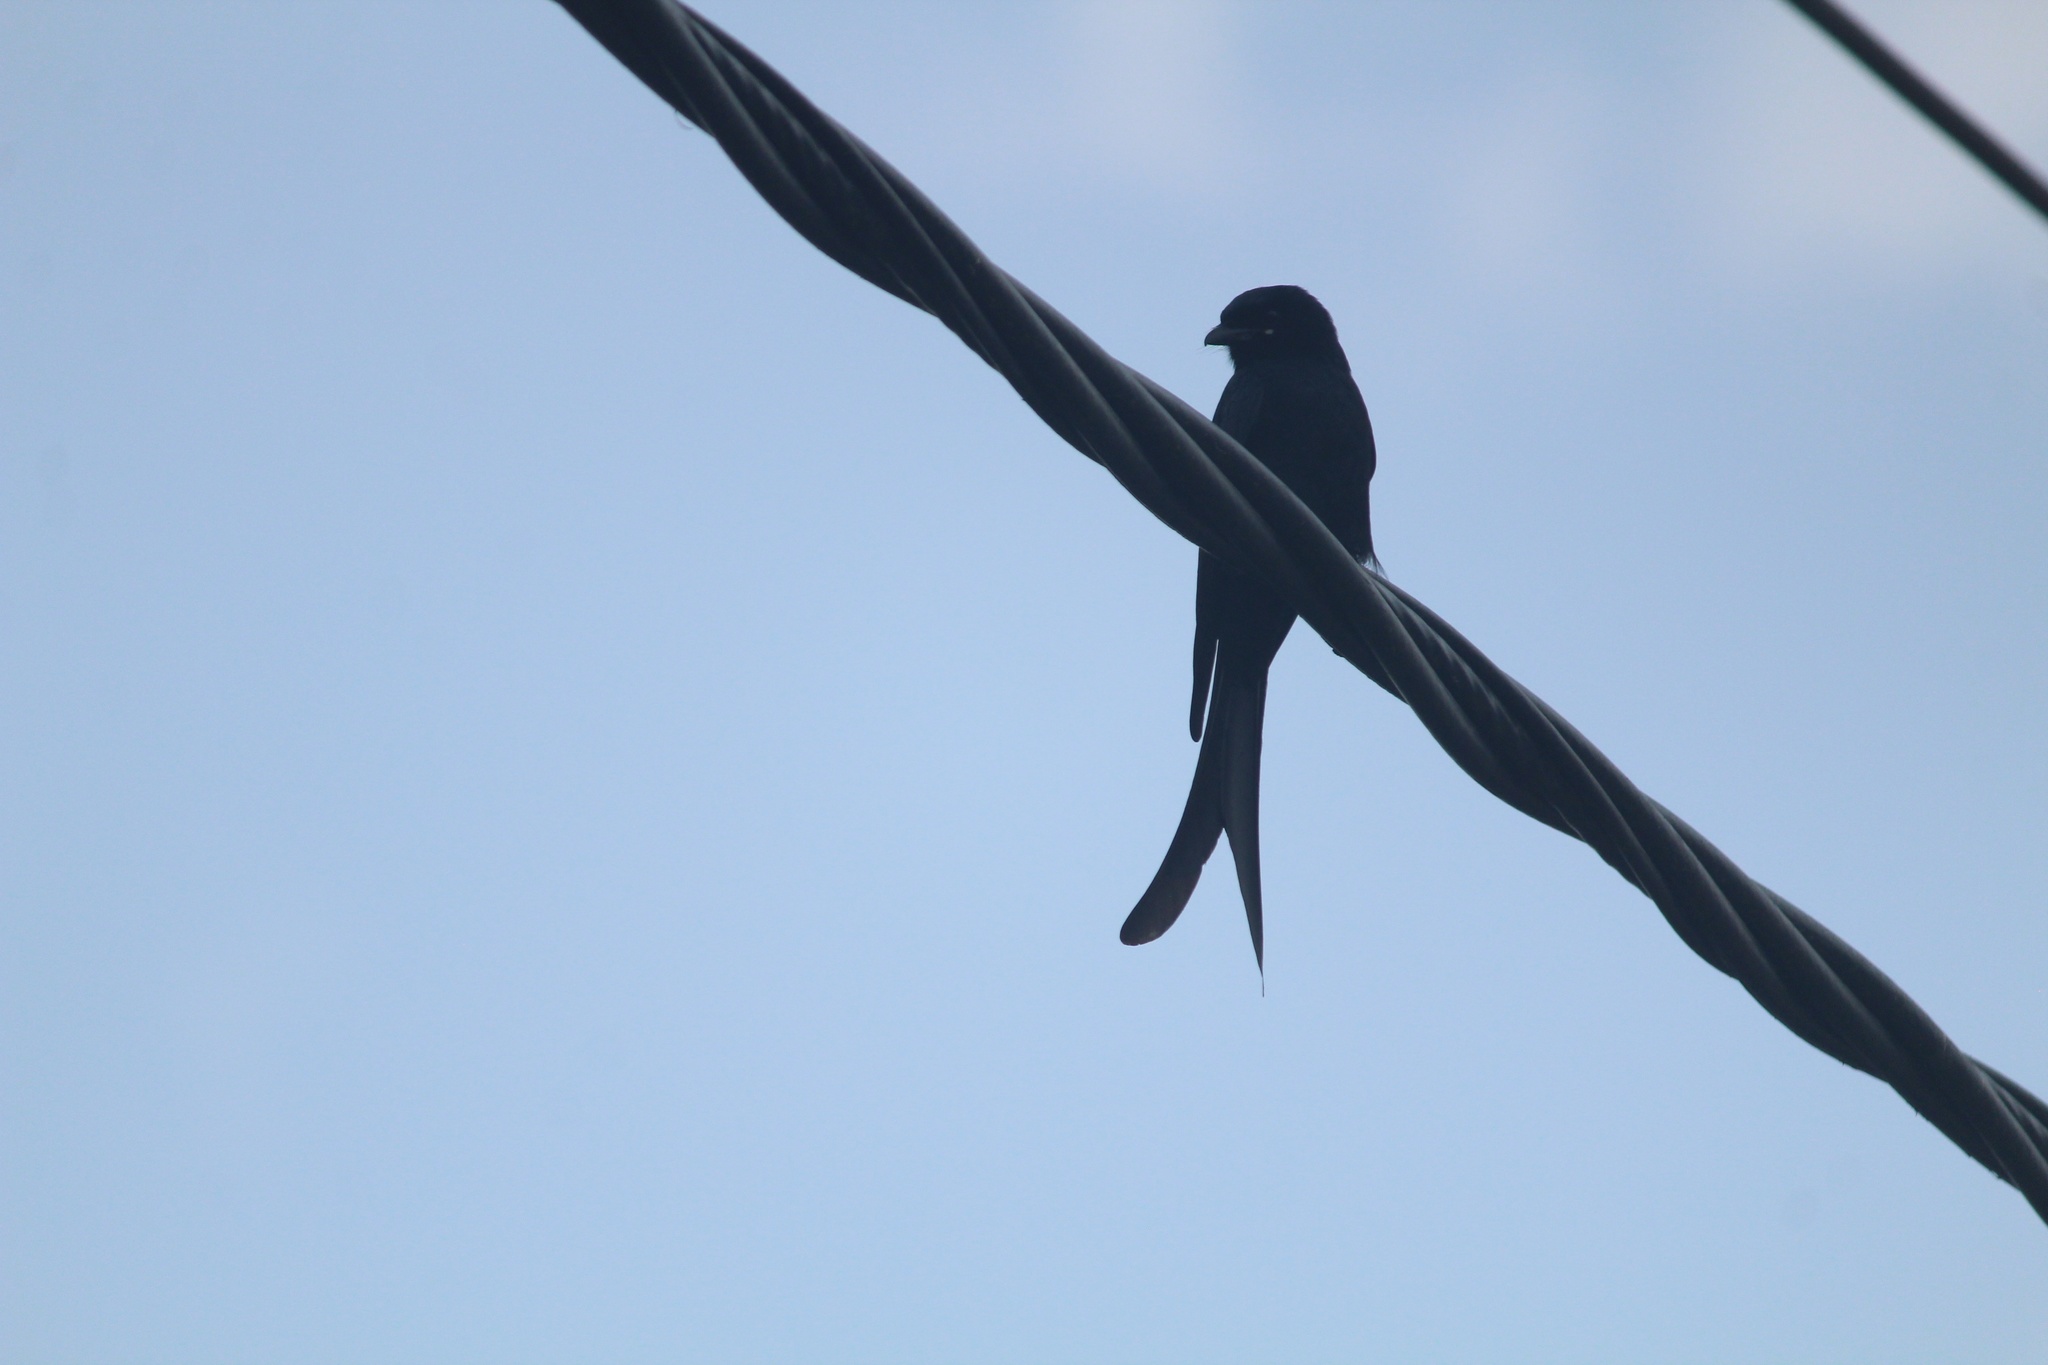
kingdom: Animalia
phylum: Chordata
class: Aves
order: Passeriformes
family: Dicruridae
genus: Dicrurus
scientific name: Dicrurus macrocercus
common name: Black drongo
